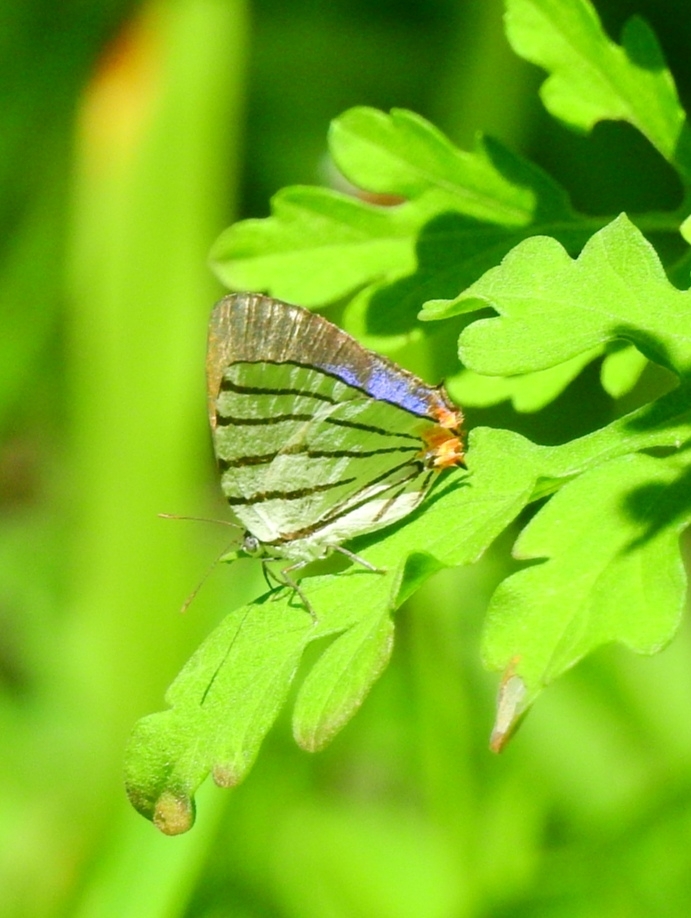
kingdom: Animalia
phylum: Arthropoda
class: Insecta
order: Lepidoptera
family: Lycaenidae
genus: Arawacus
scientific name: Arawacus sito
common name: Fine-lined hairstreak
